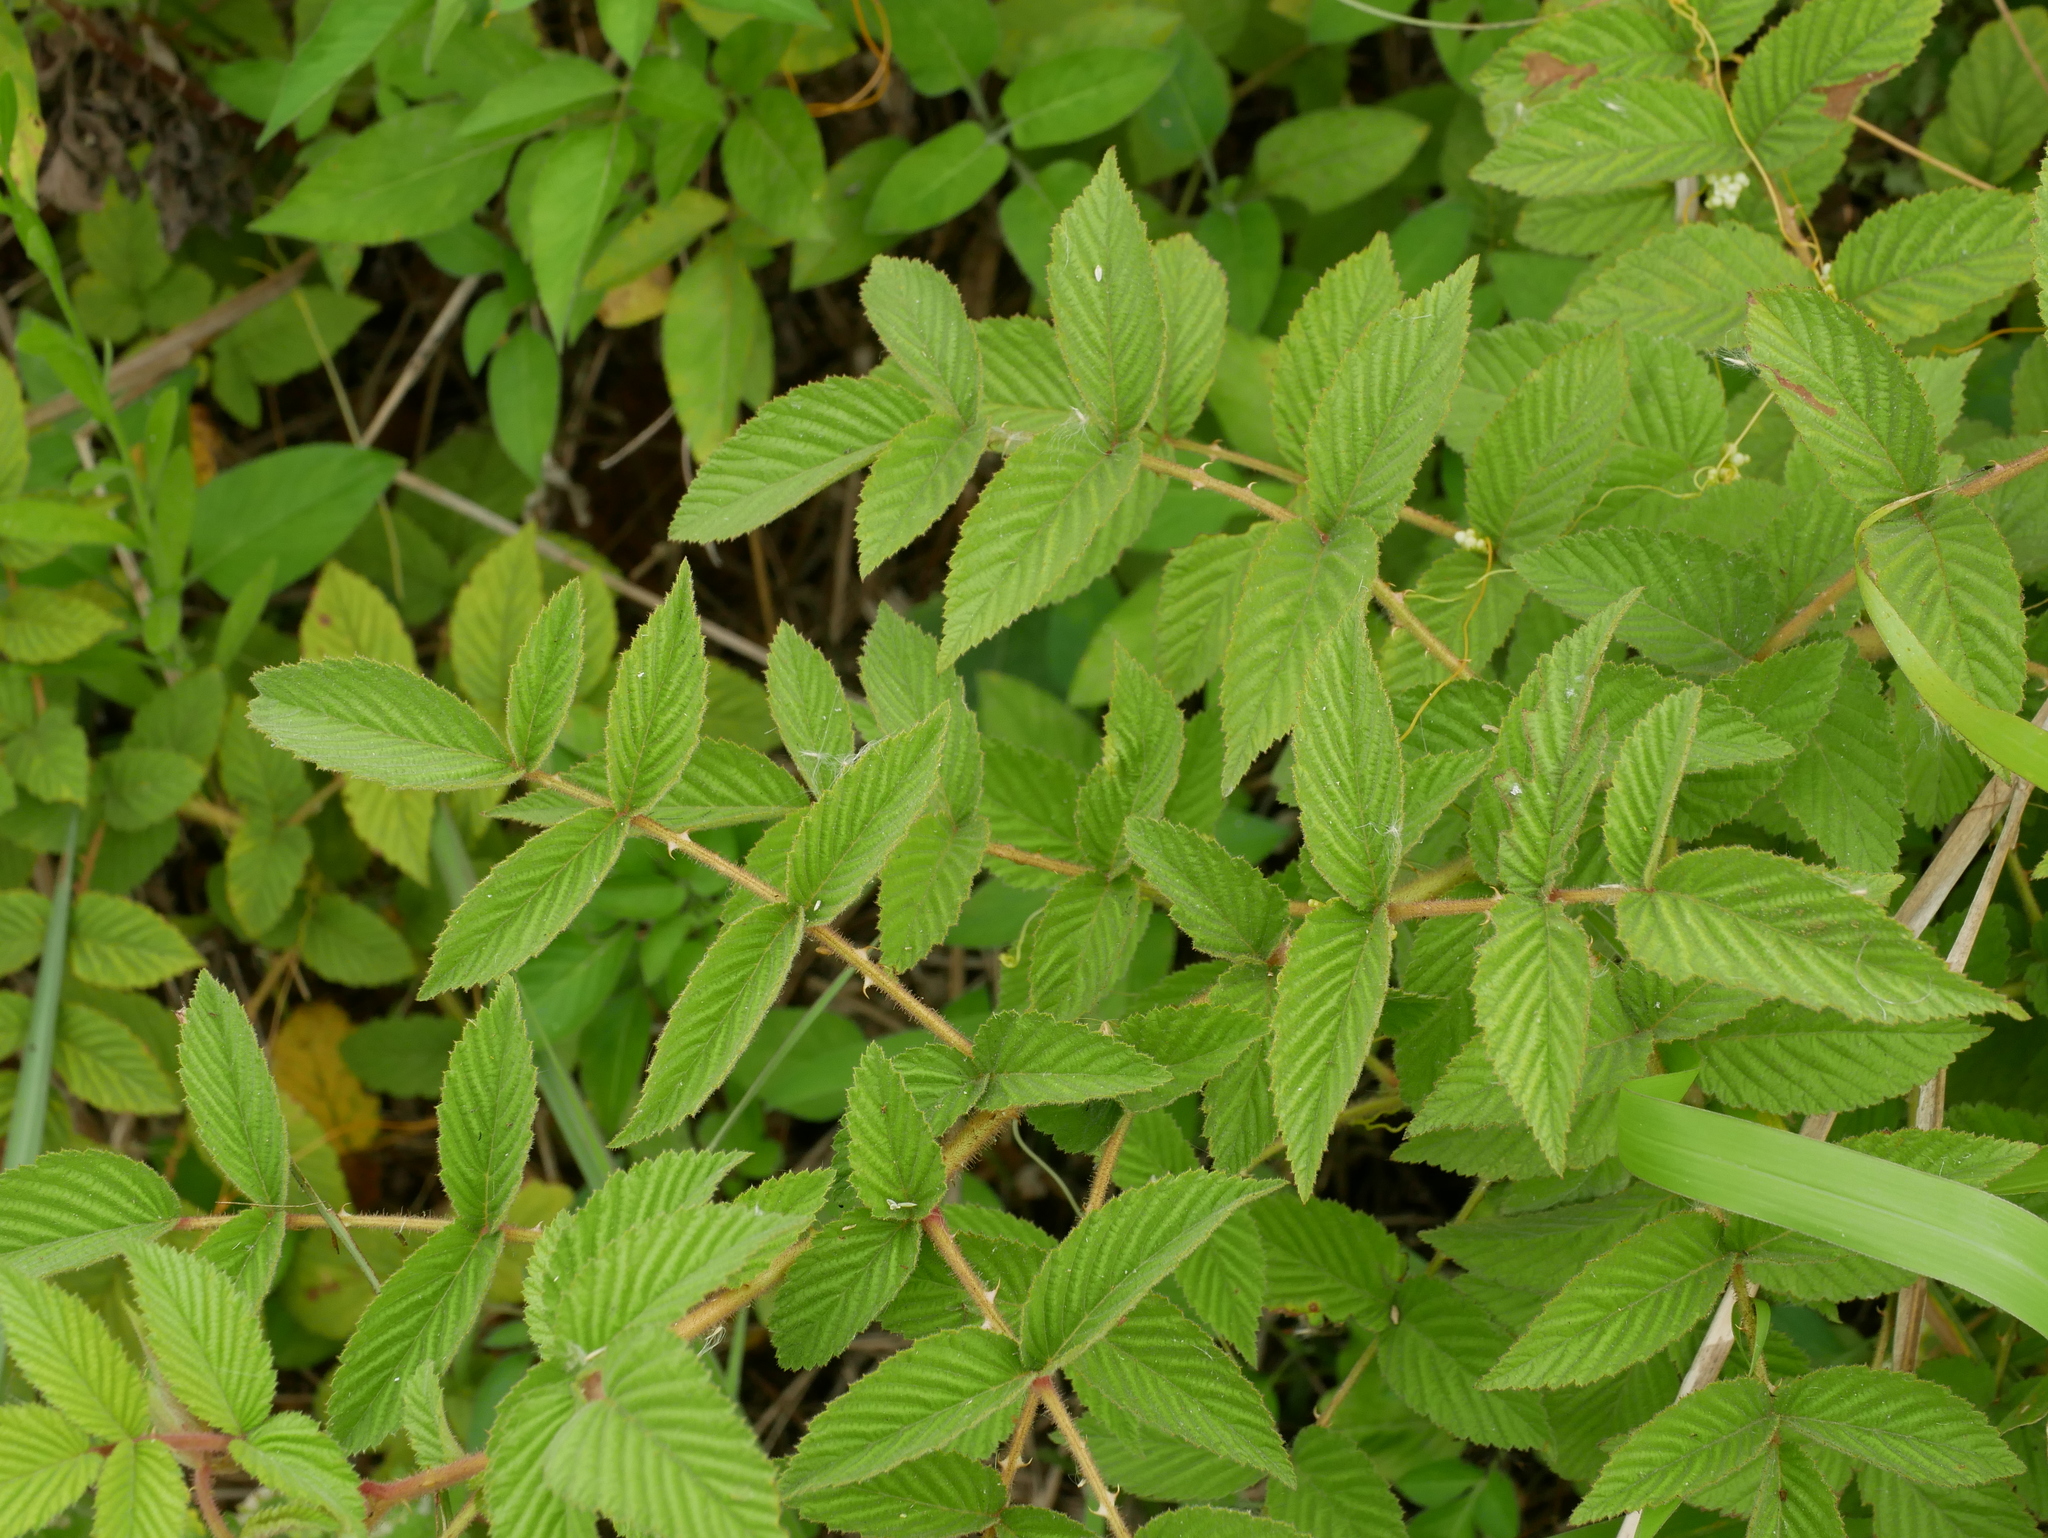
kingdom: Plantae
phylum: Tracheophyta
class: Magnoliopsida
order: Rosales
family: Rosaceae
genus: Rubus
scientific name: Rubus croceacanthus
